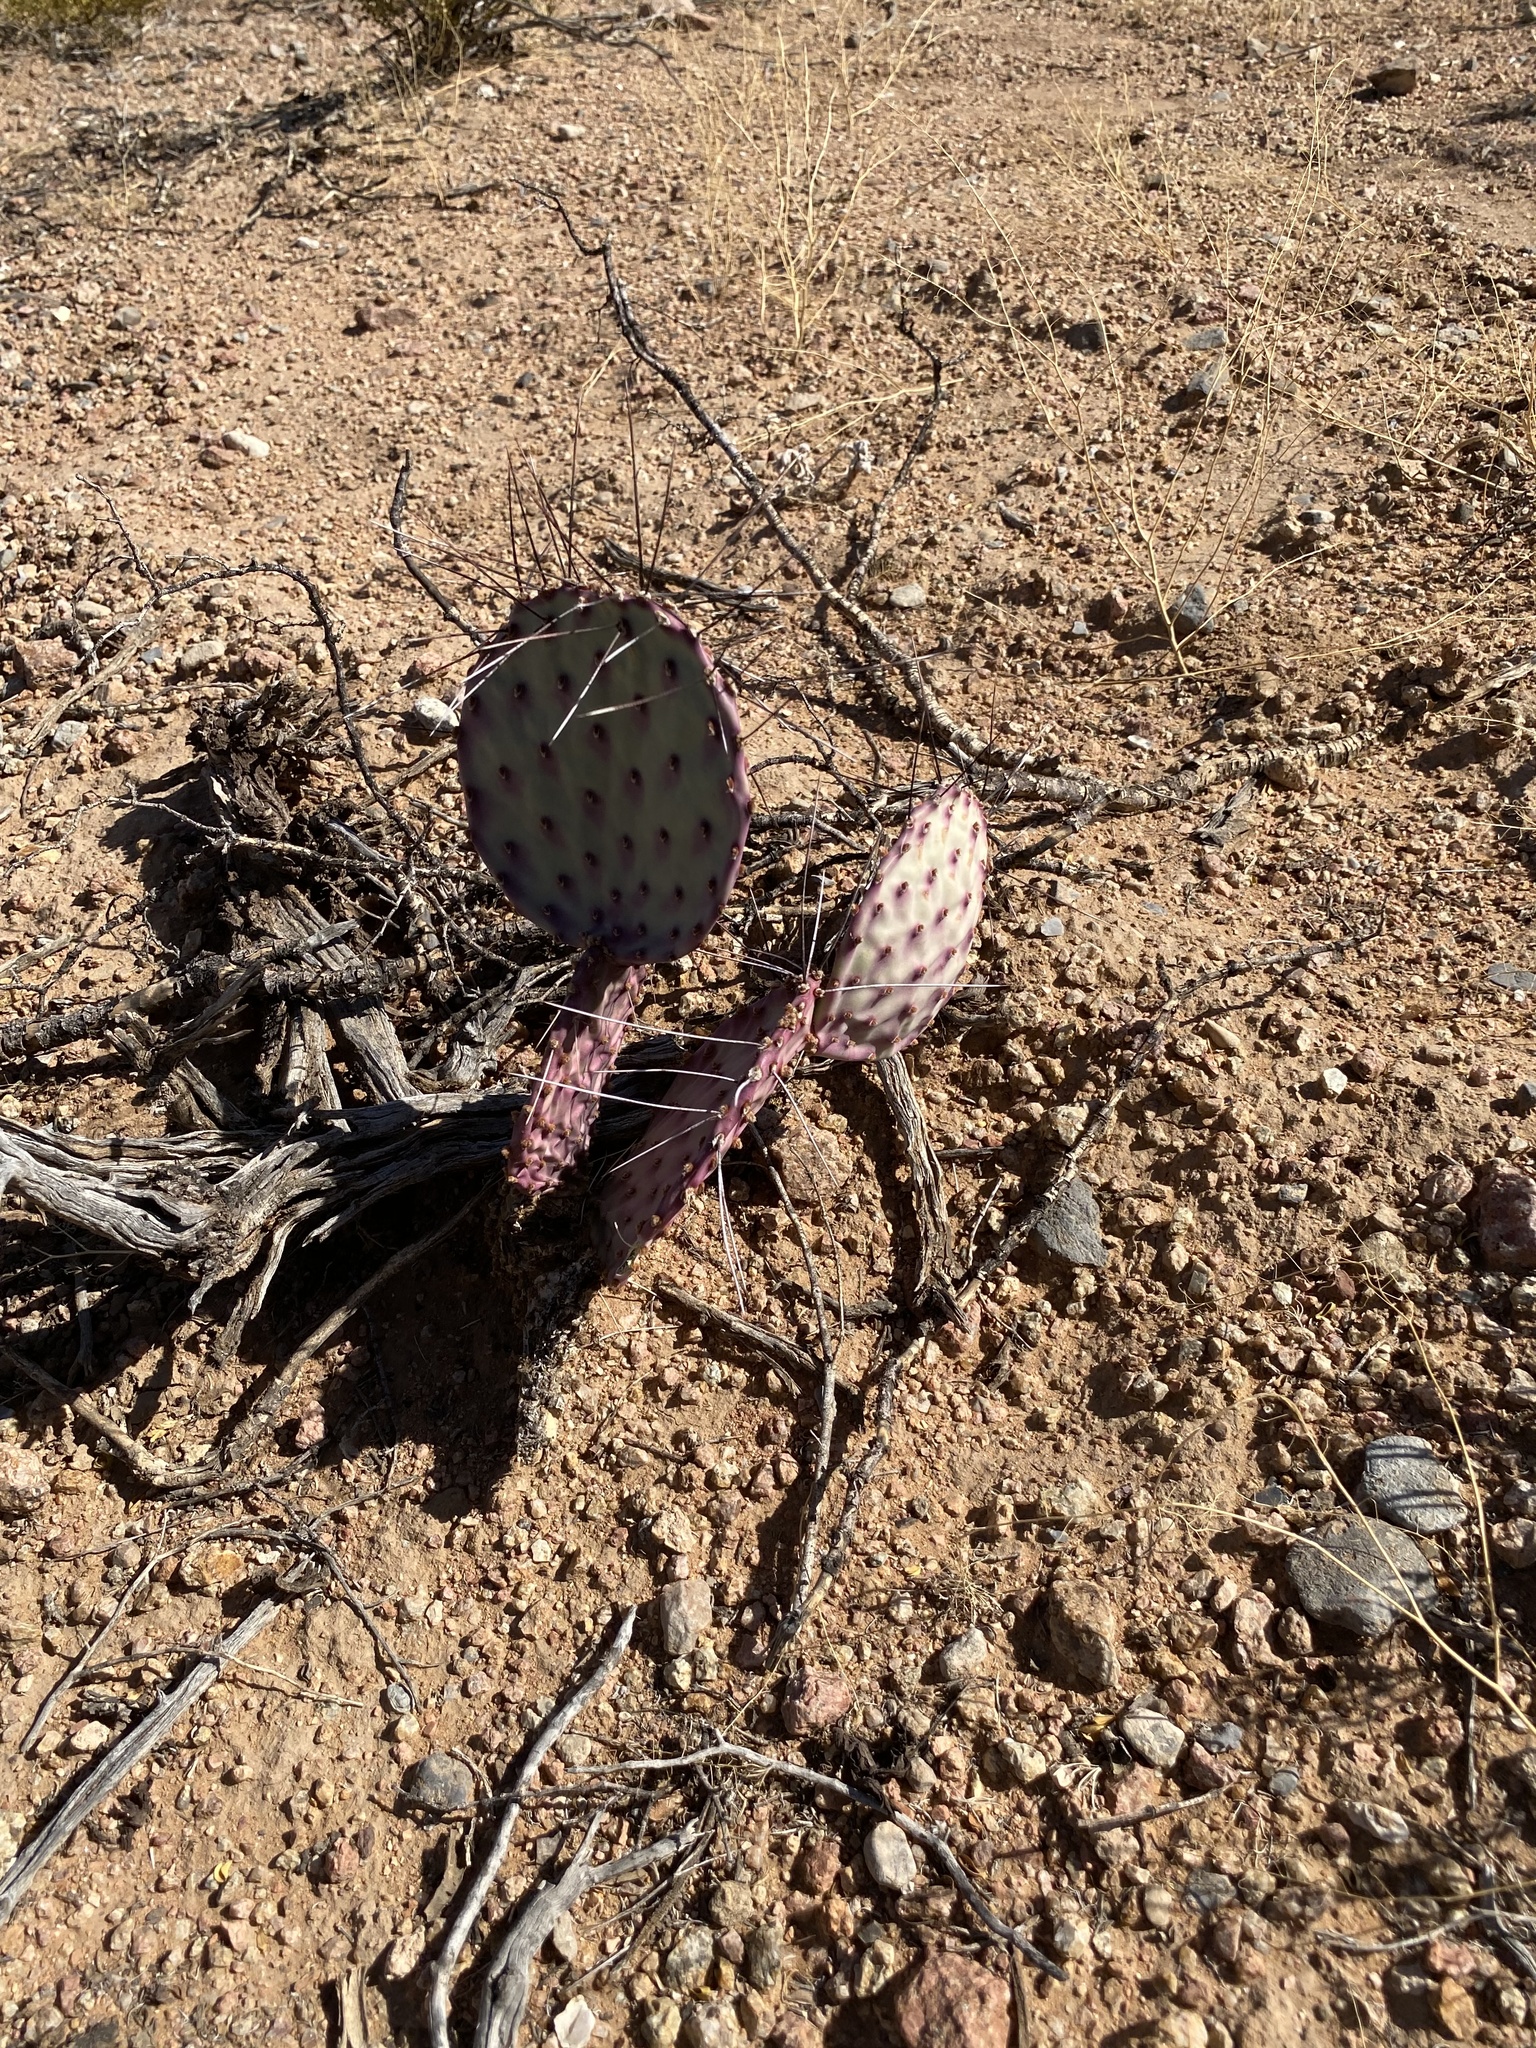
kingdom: Plantae
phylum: Tracheophyta
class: Magnoliopsida
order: Caryophyllales
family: Cactaceae
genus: Opuntia
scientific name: Opuntia macrocentra
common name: Purple prickly-pear
